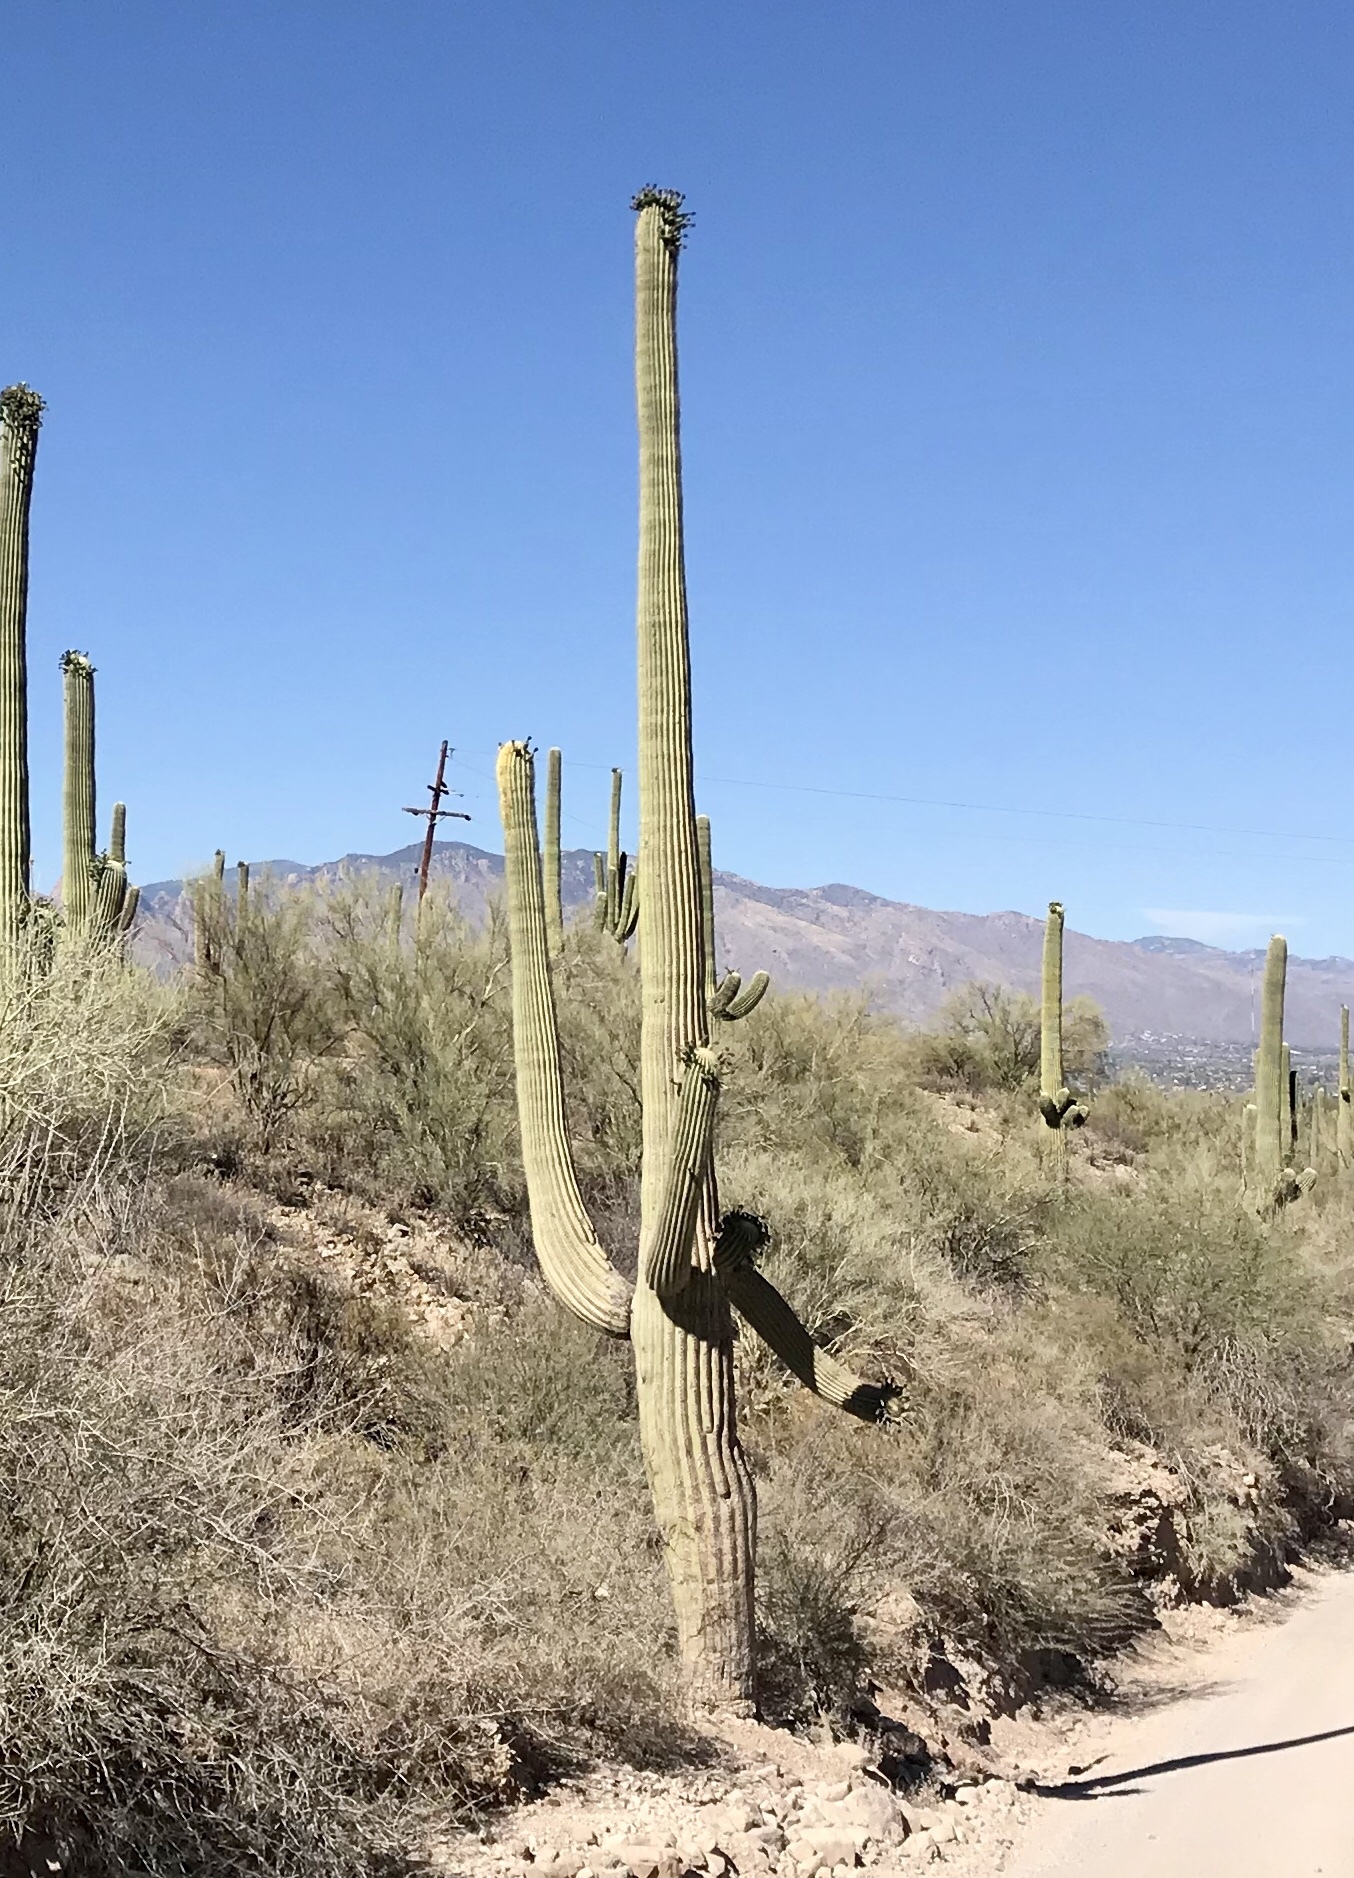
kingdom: Plantae
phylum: Tracheophyta
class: Magnoliopsida
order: Caryophyllales
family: Cactaceae
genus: Carnegiea
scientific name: Carnegiea gigantea
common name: Saguaro
